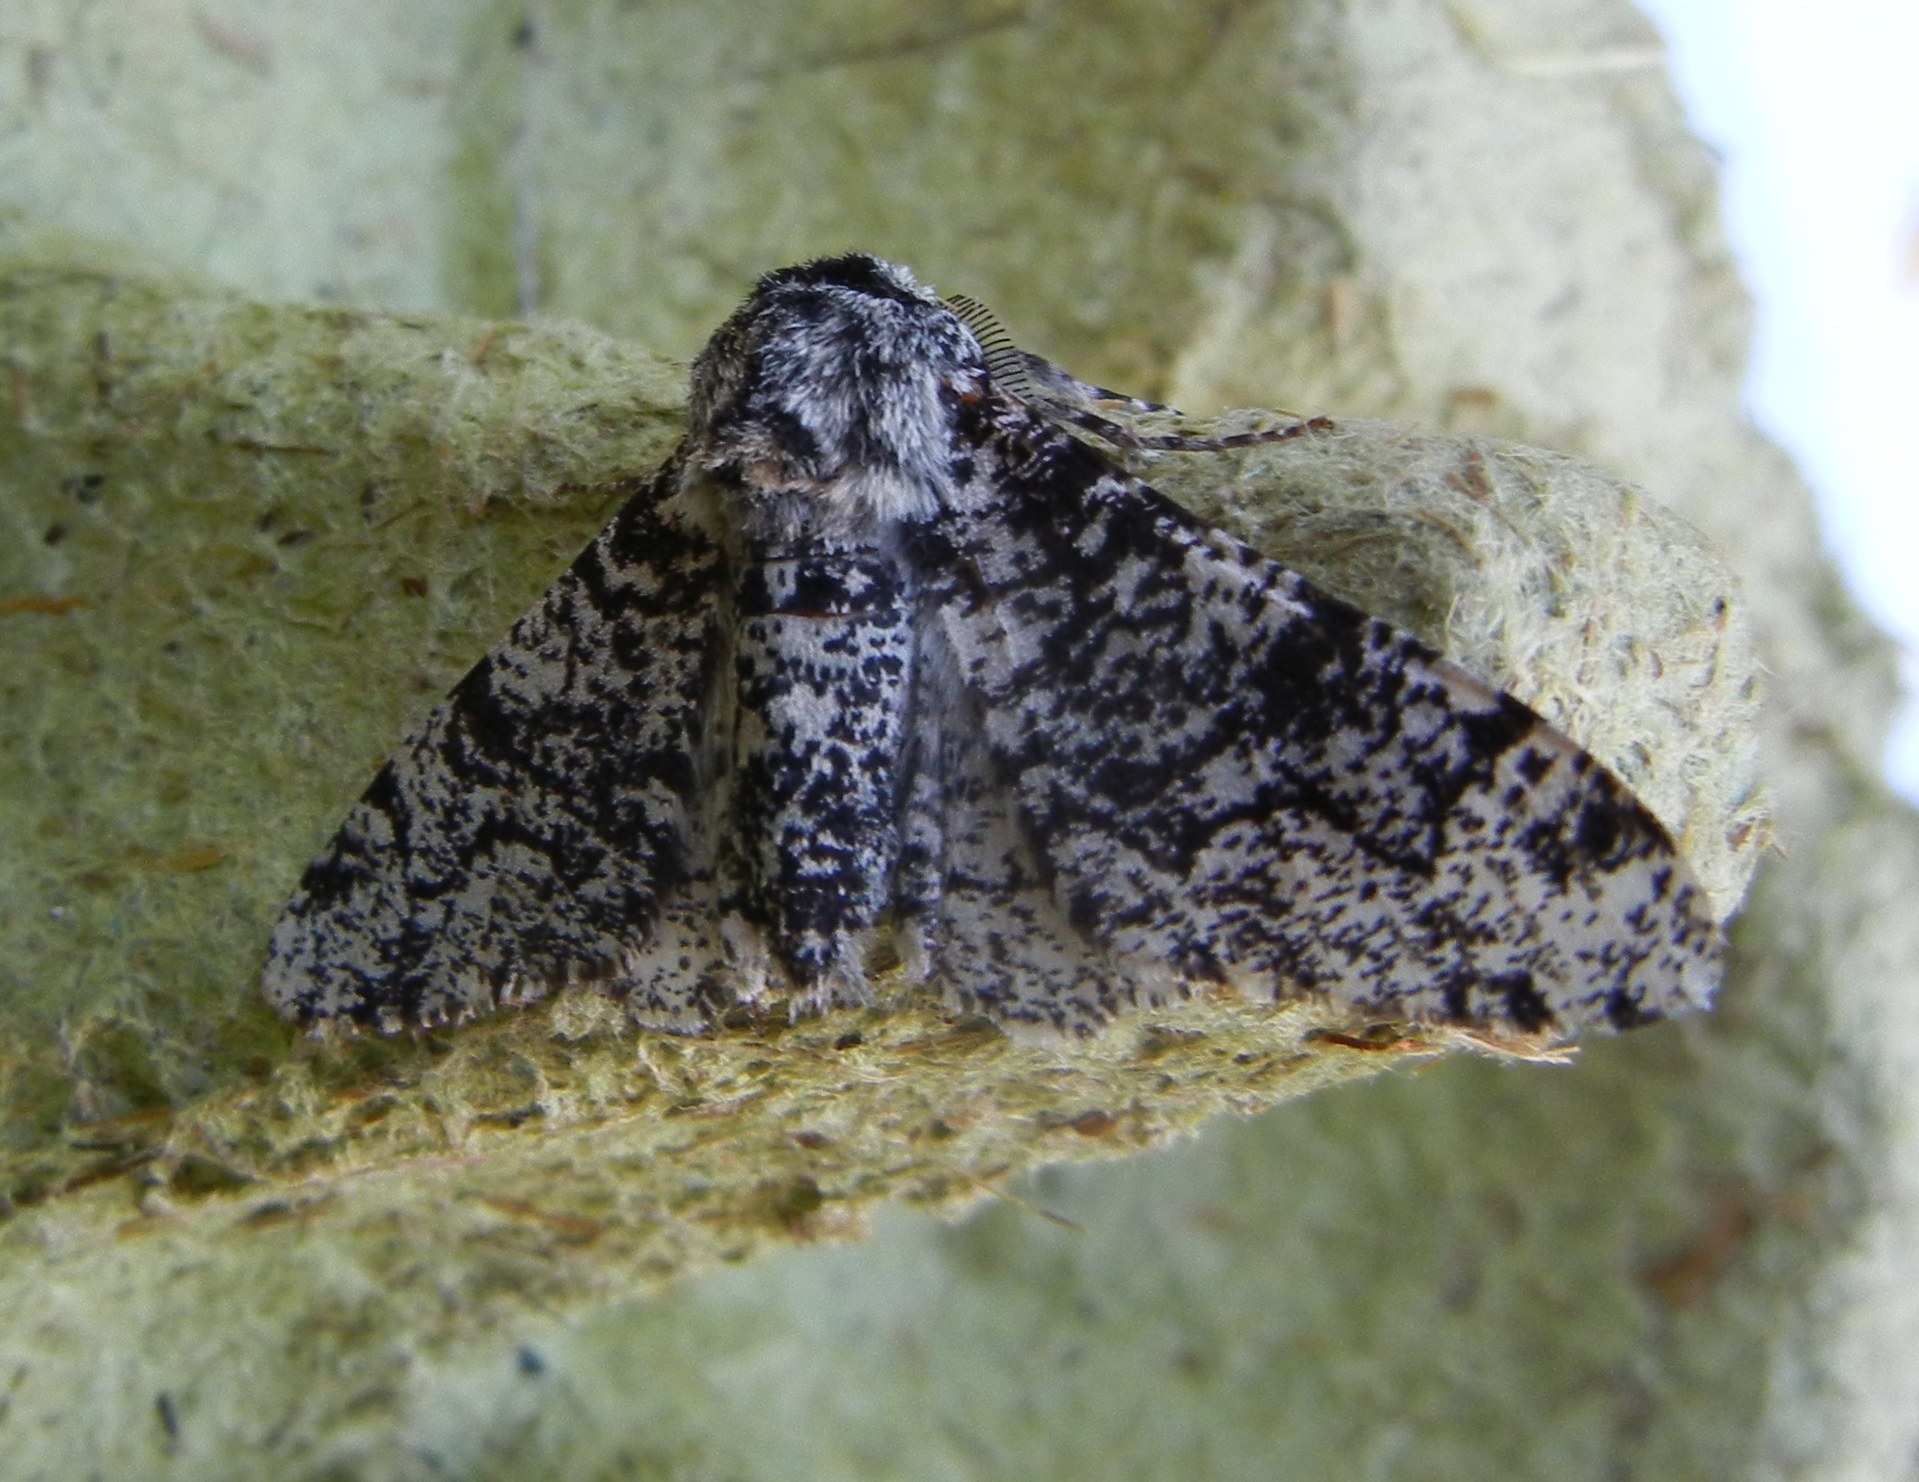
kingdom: Animalia
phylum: Arthropoda
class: Insecta
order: Lepidoptera
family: Geometridae
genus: Biston
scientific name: Biston betularia
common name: Peppered moth
